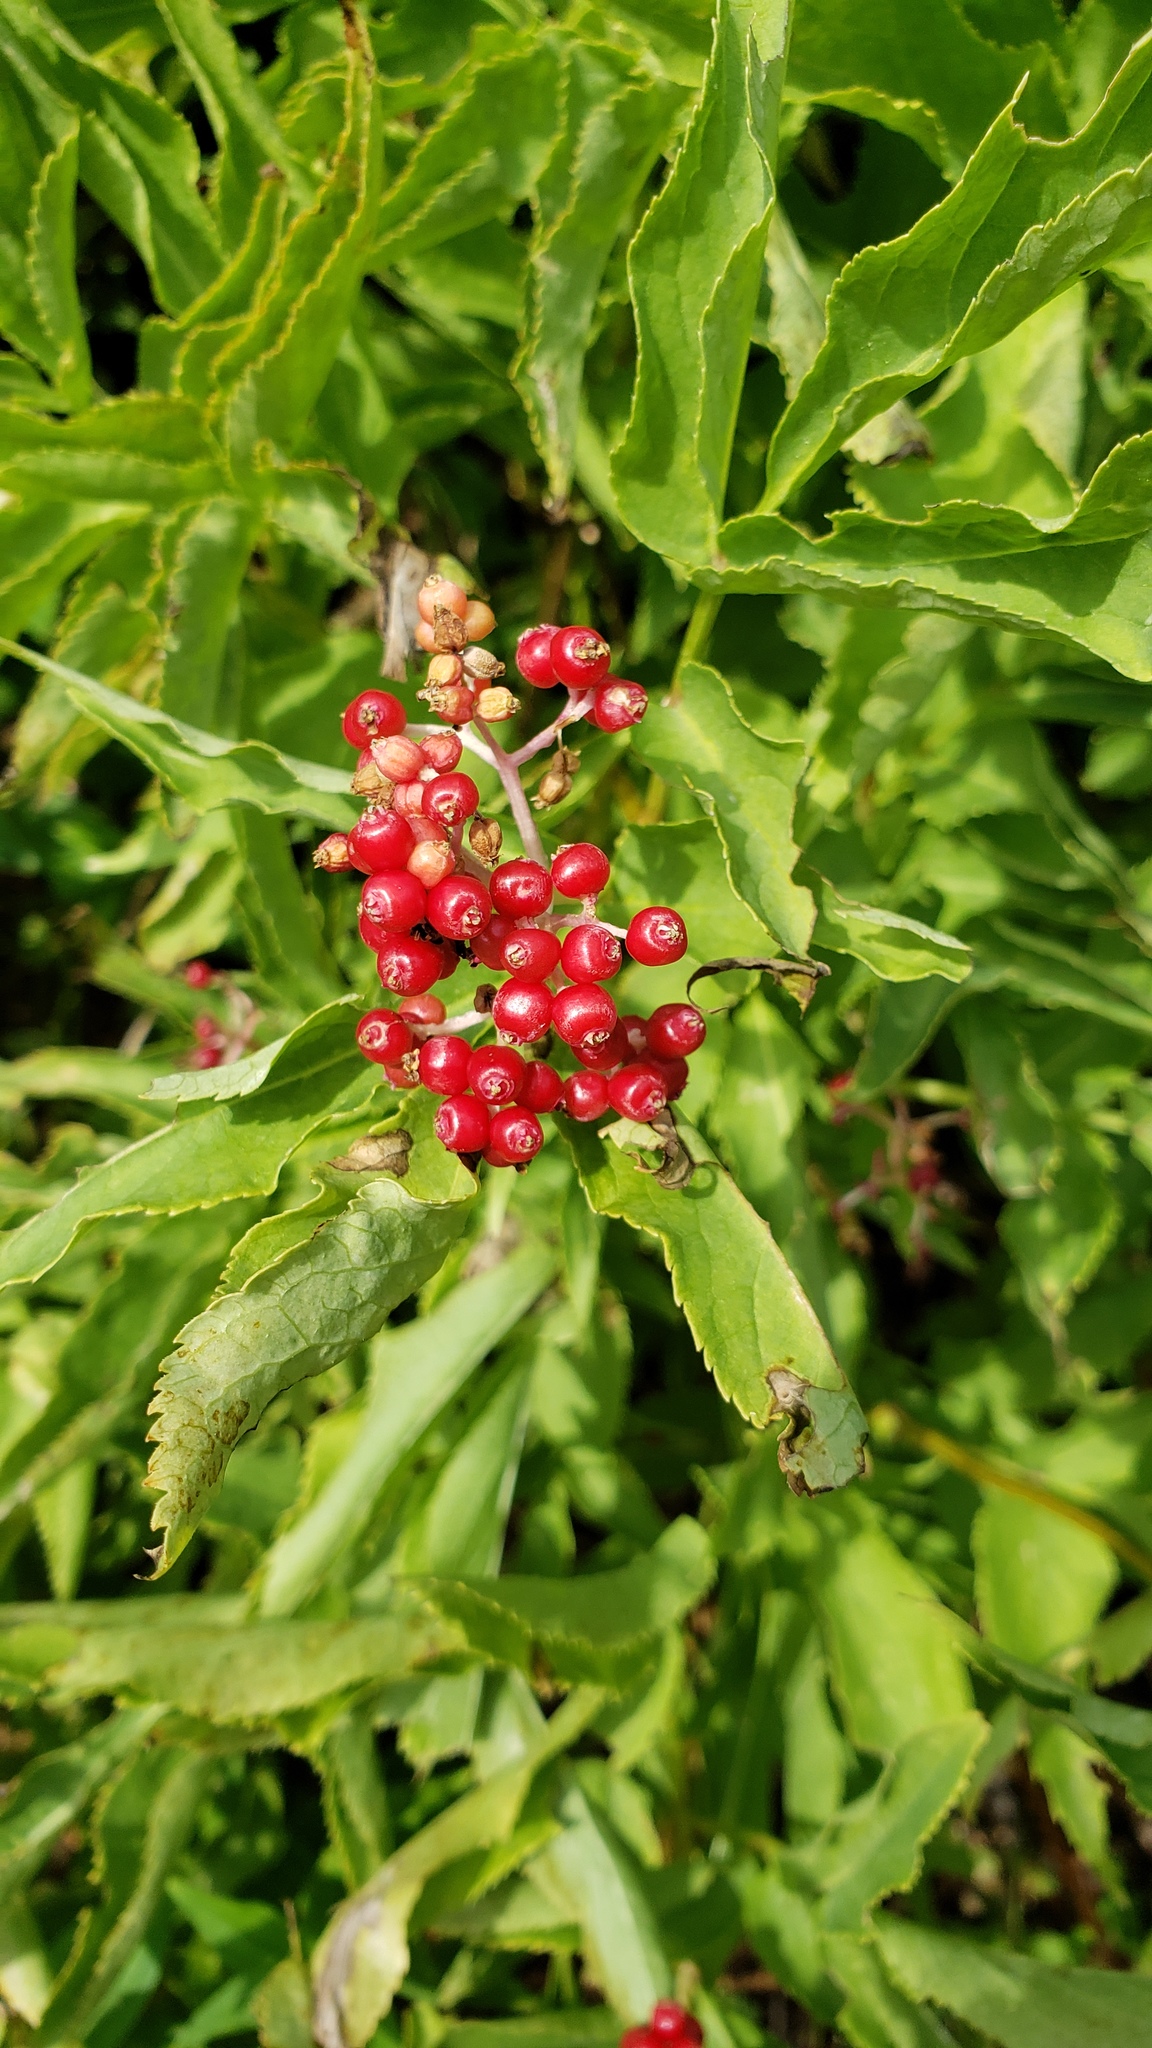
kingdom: Plantae
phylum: Tracheophyta
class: Magnoliopsida
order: Dipsacales
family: Viburnaceae
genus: Sambucus
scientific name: Sambucus racemosa
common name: Red-berried elder
